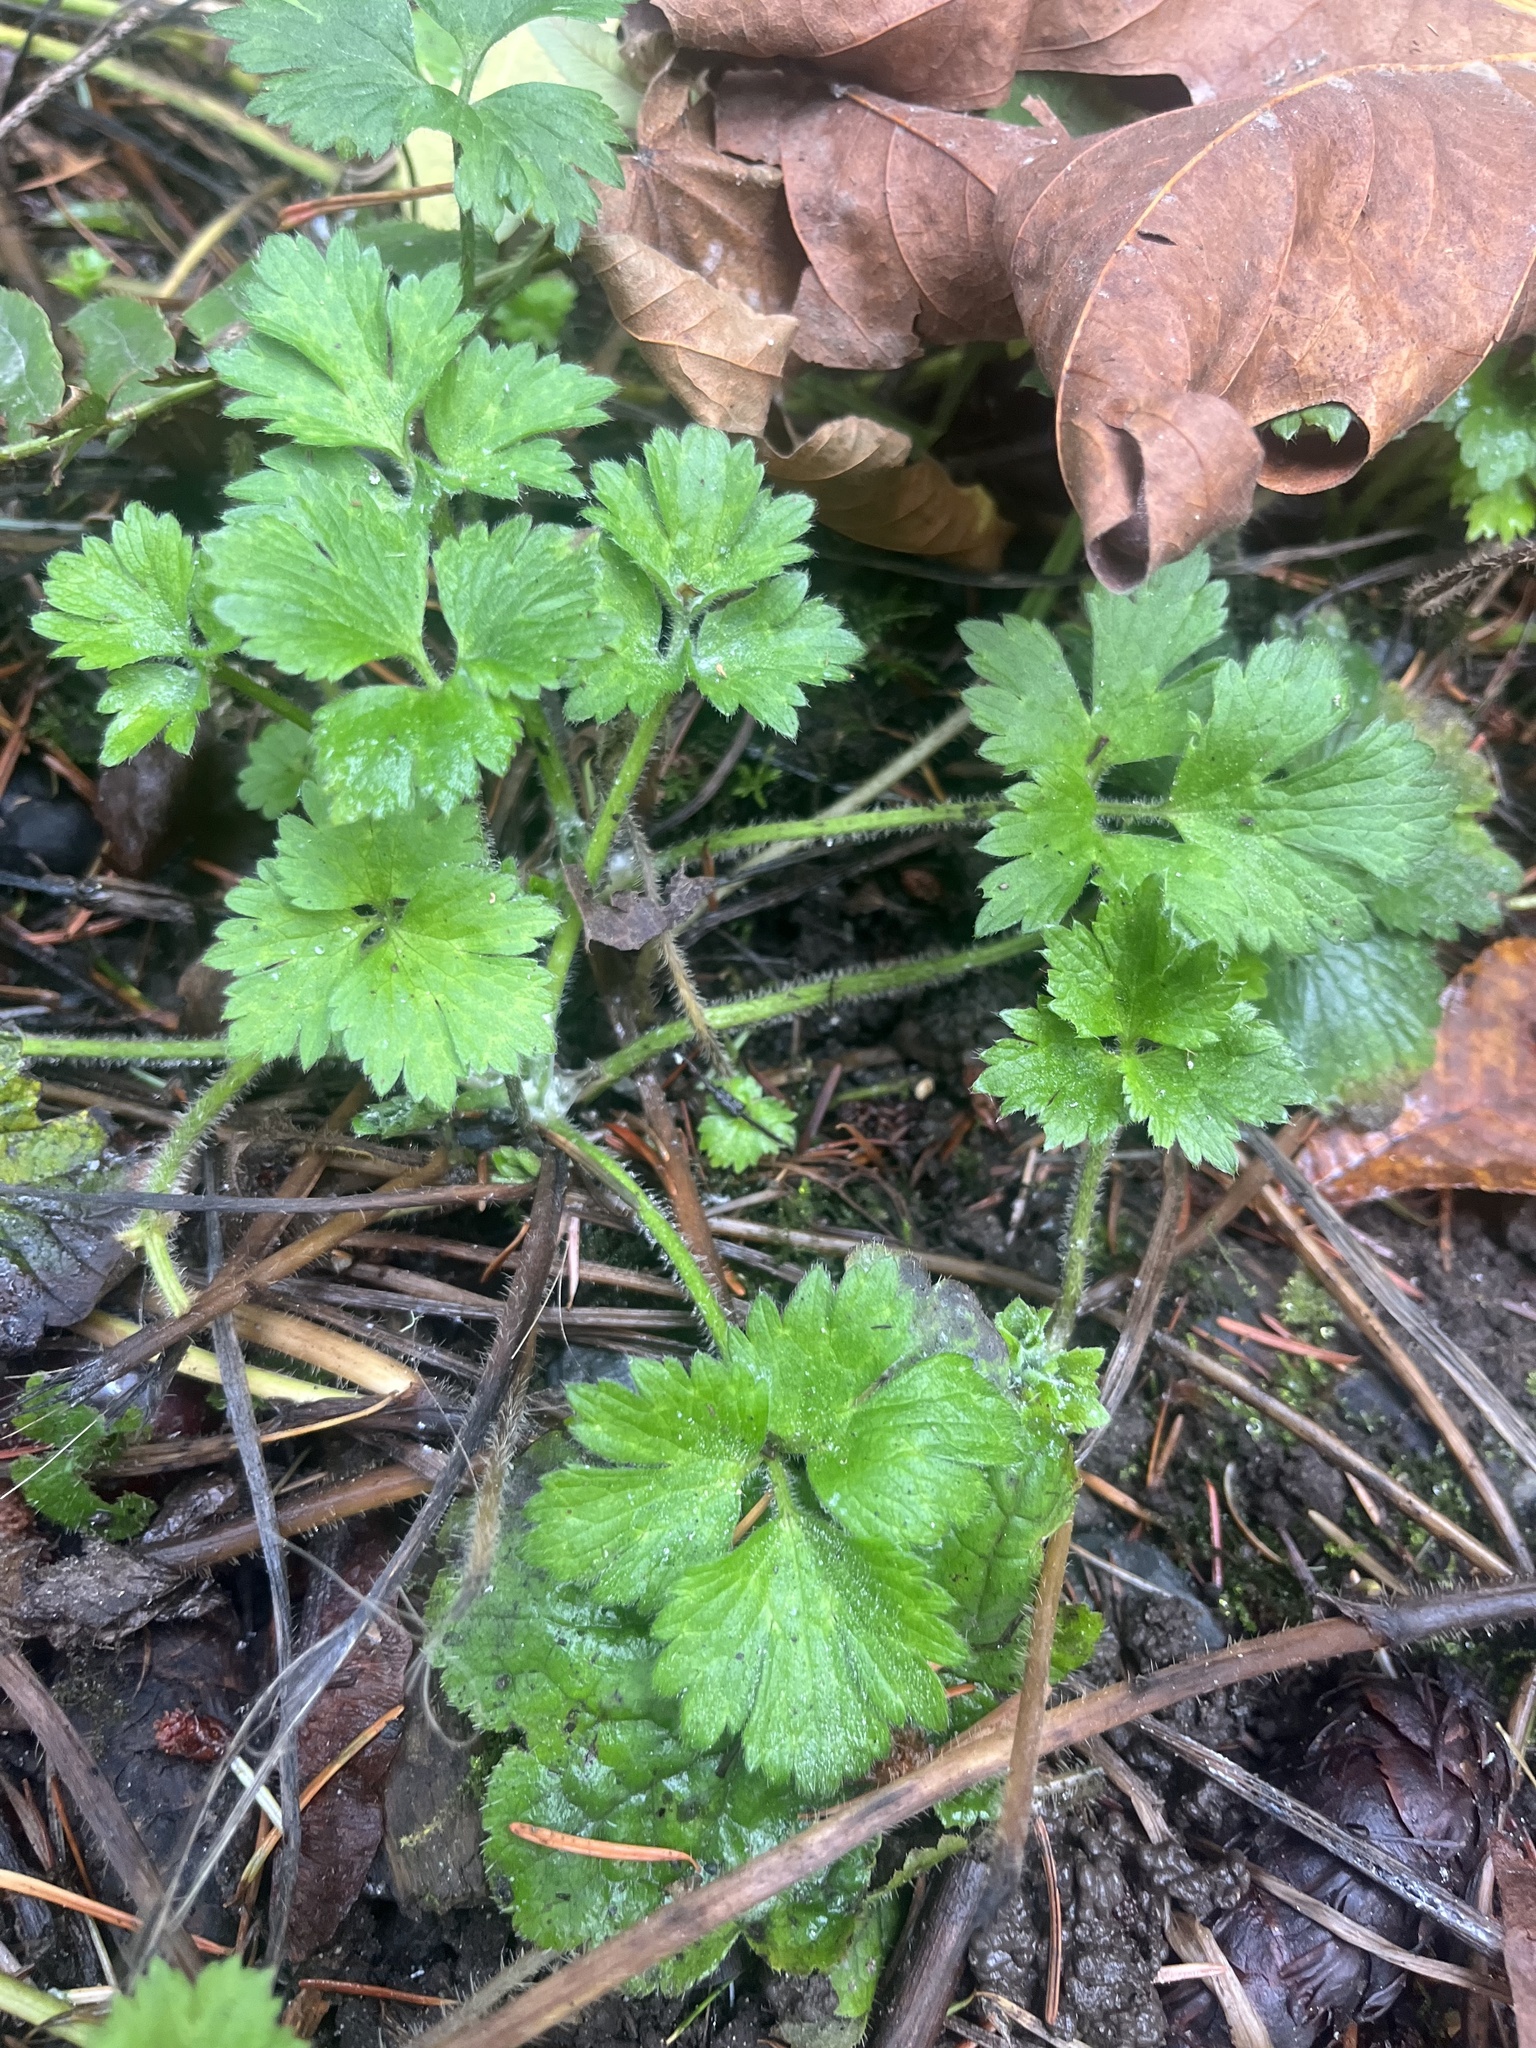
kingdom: Plantae
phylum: Tracheophyta
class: Magnoliopsida
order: Ranunculales
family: Ranunculaceae
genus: Ranunculus
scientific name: Ranunculus repens
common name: Creeping buttercup
